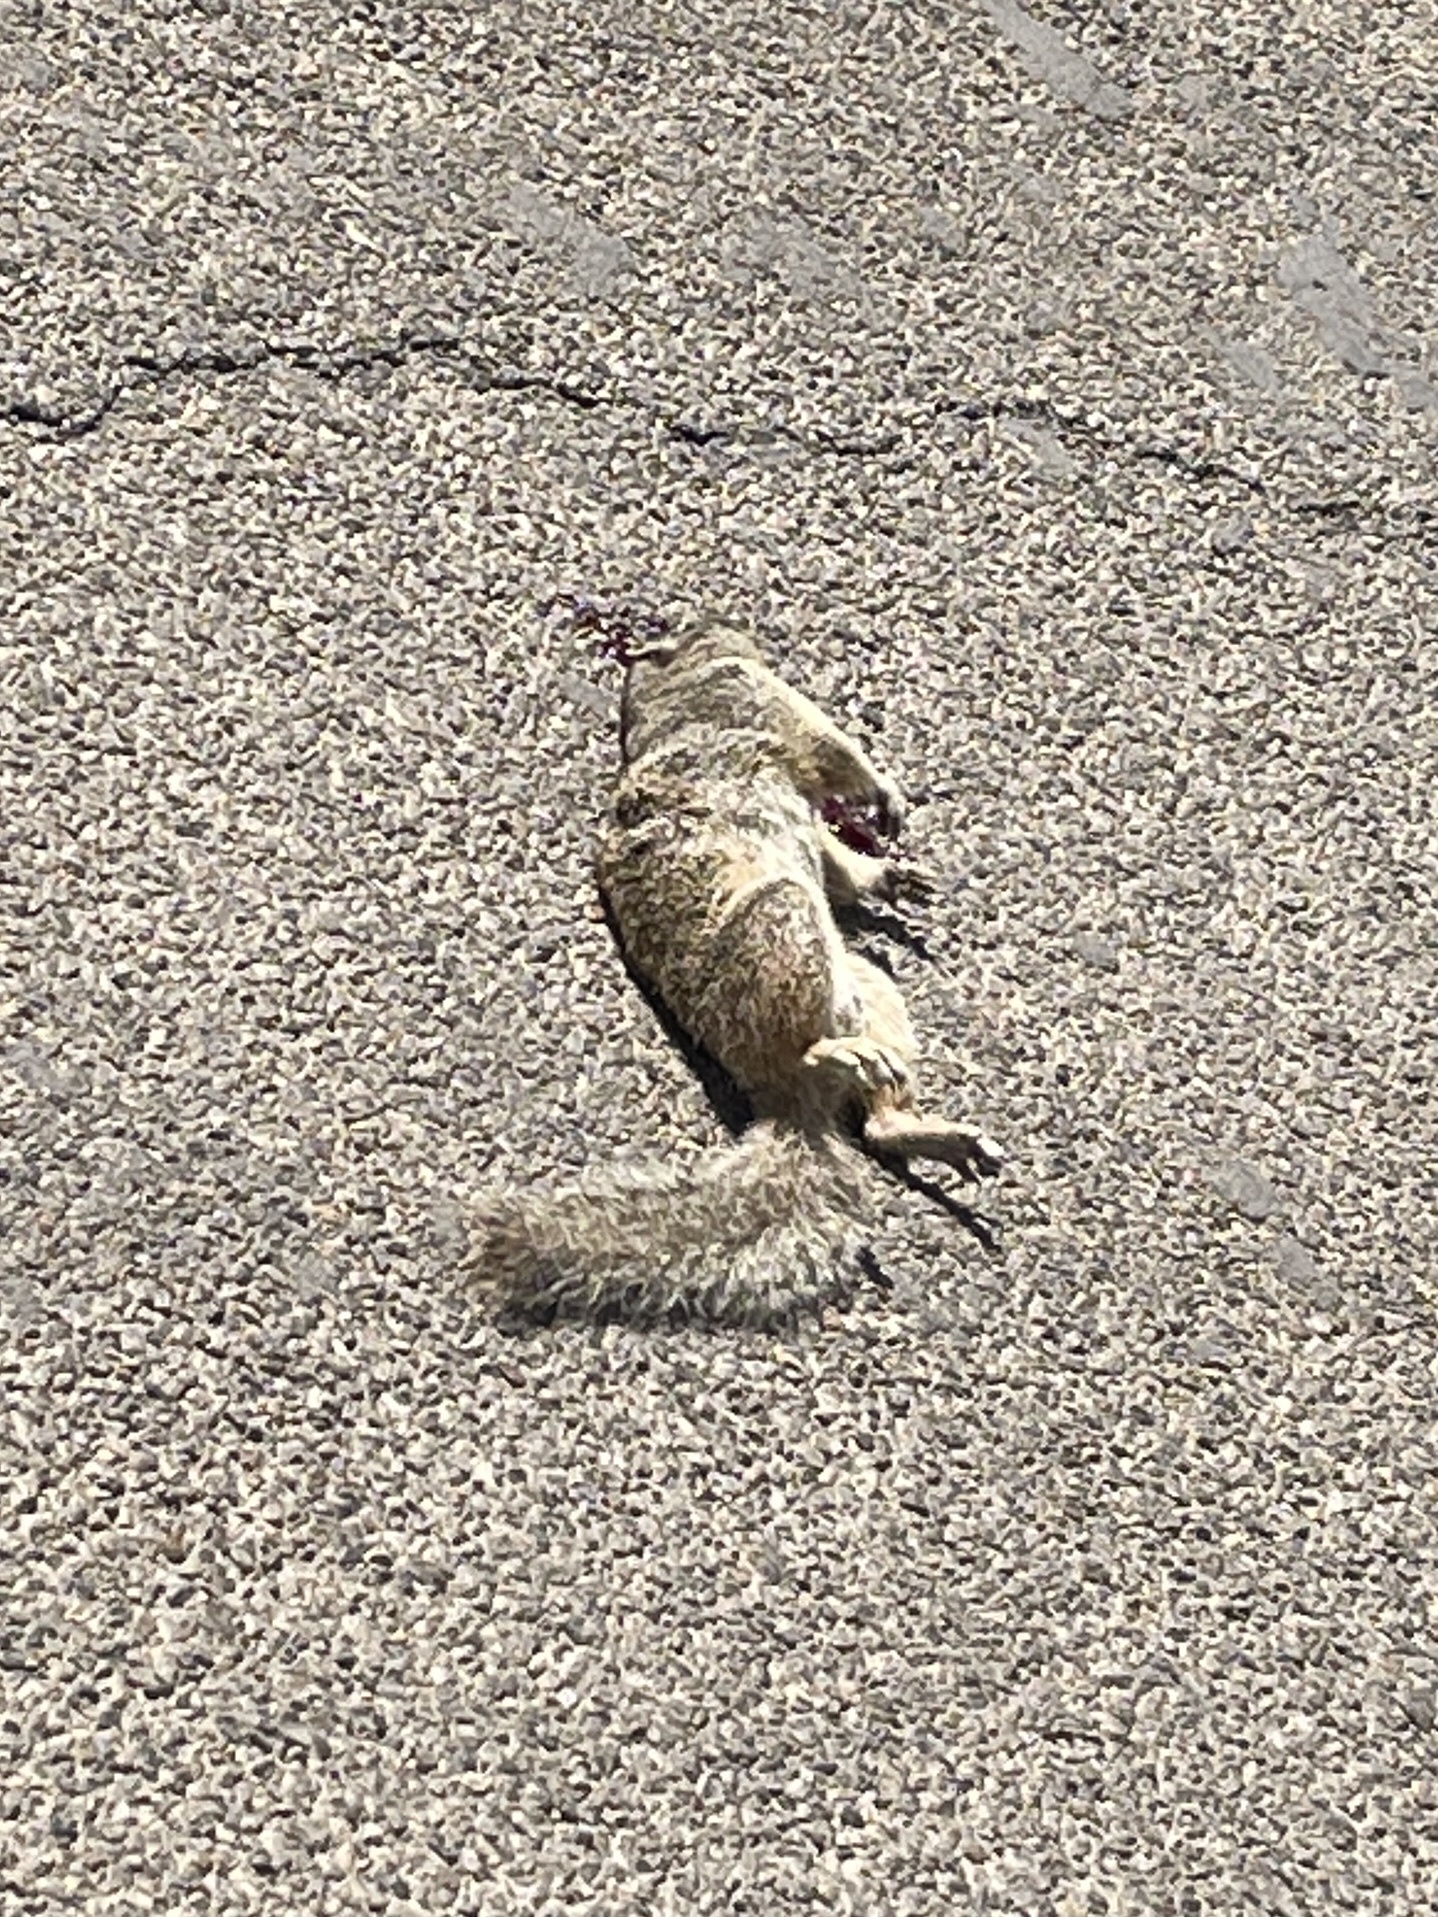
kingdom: Animalia
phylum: Chordata
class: Mammalia
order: Rodentia
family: Sciuridae
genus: Otospermophilus
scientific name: Otospermophilus variegatus
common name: Rock squirrel
